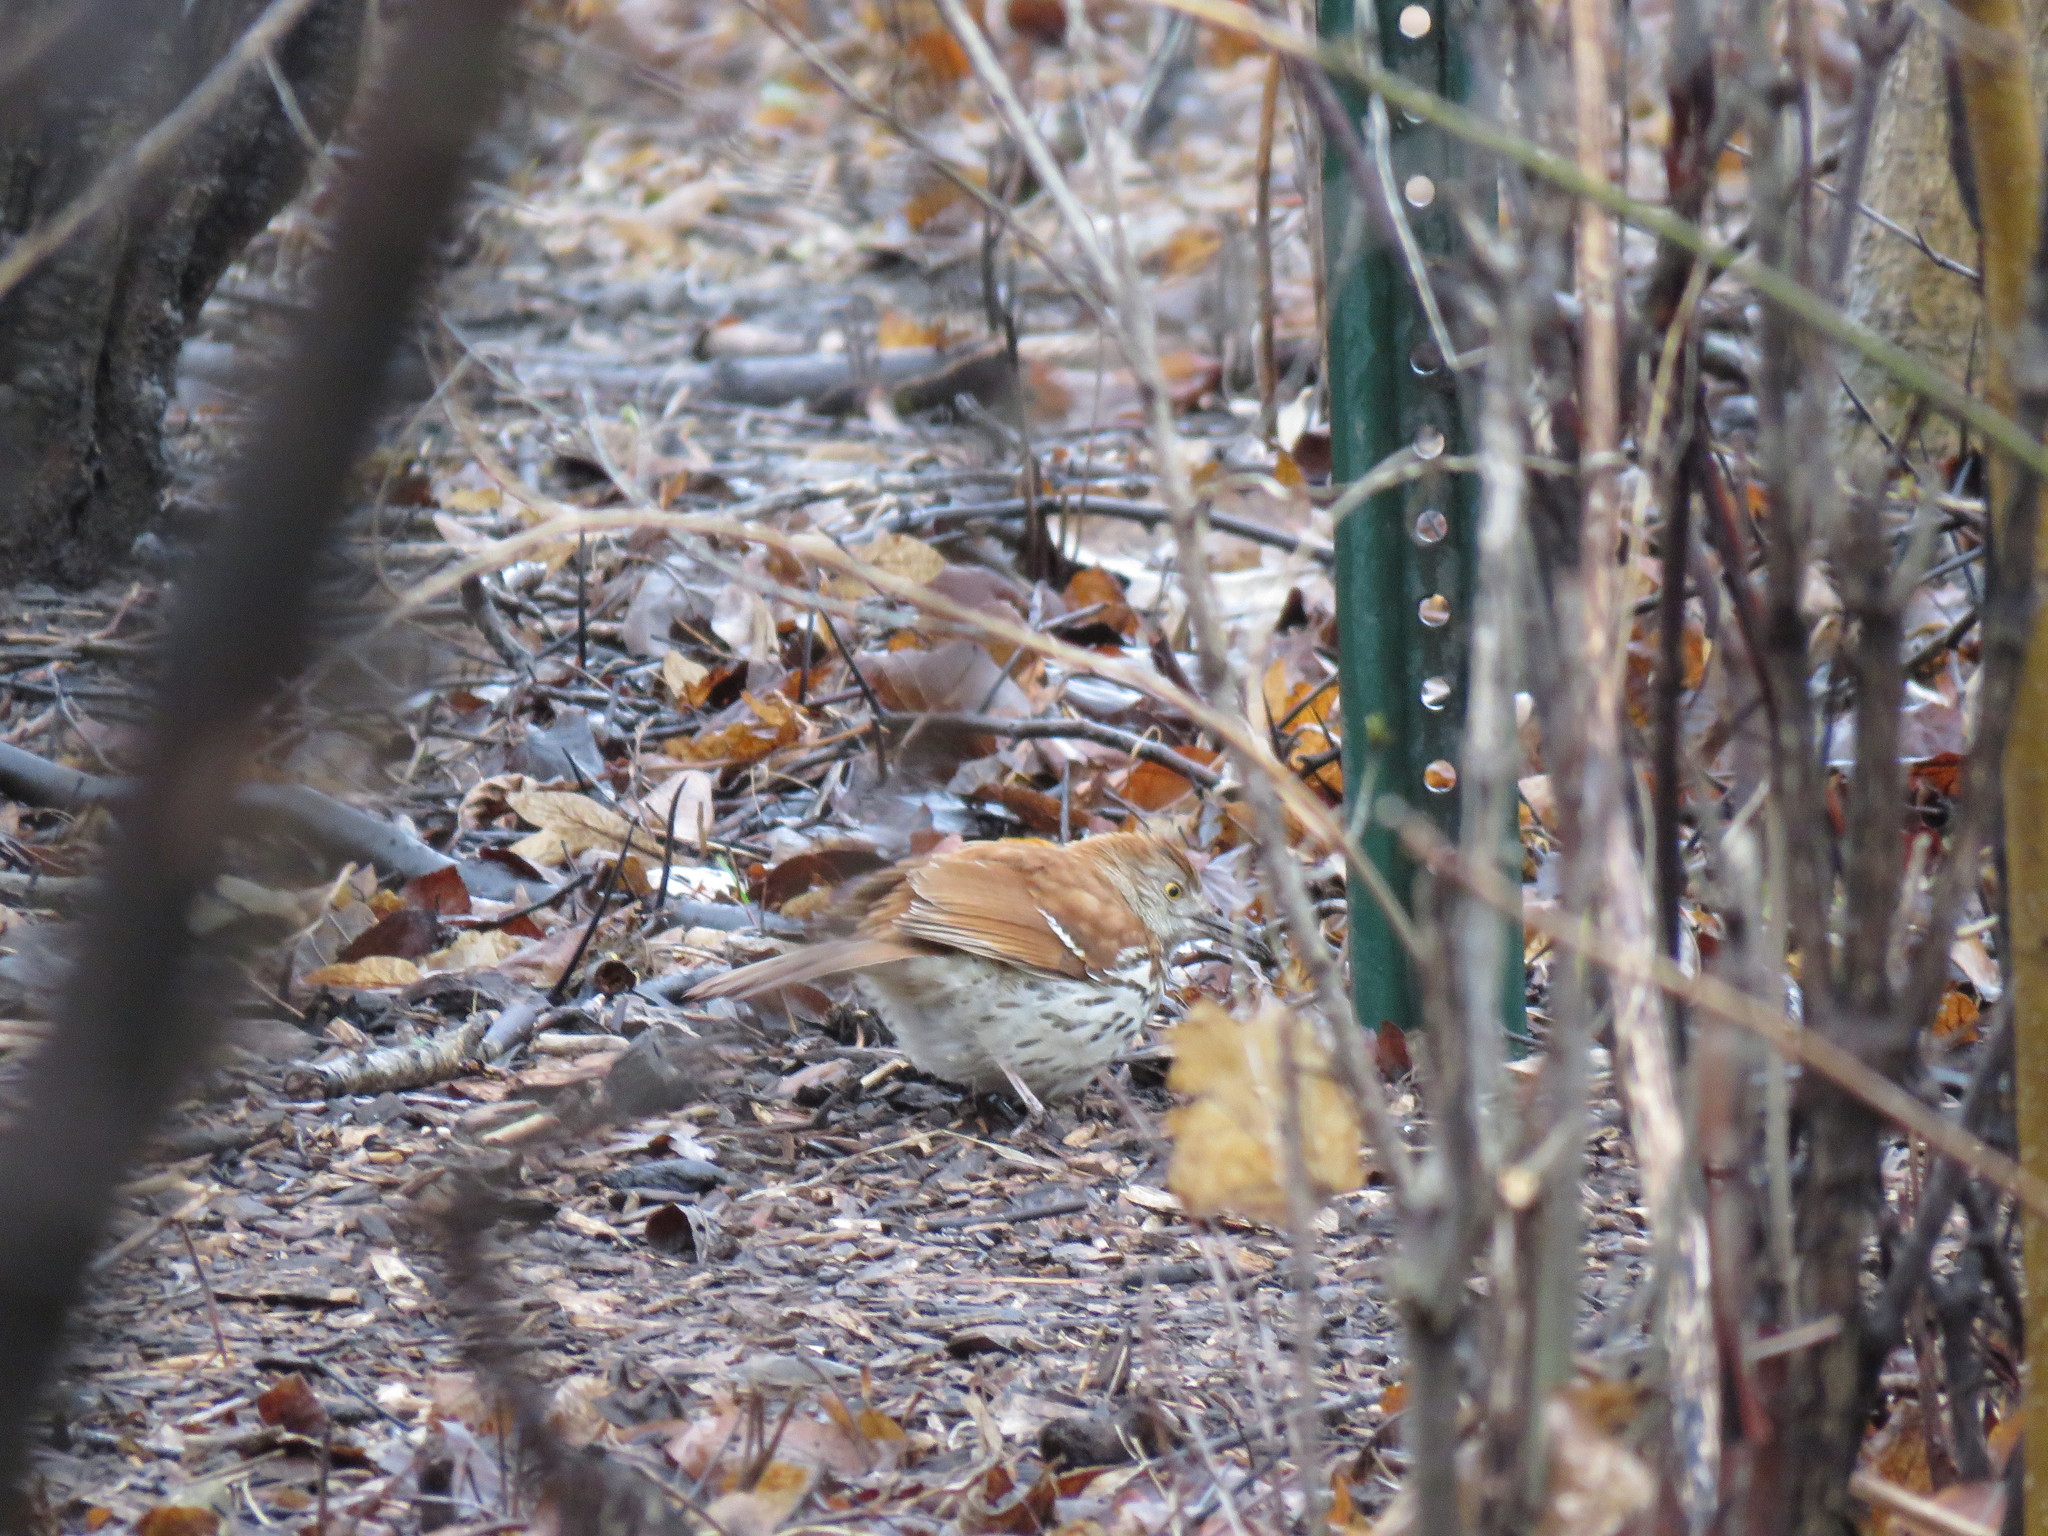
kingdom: Animalia
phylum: Chordata
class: Aves
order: Passeriformes
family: Mimidae
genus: Toxostoma
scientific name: Toxostoma rufum
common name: Brown thrasher
